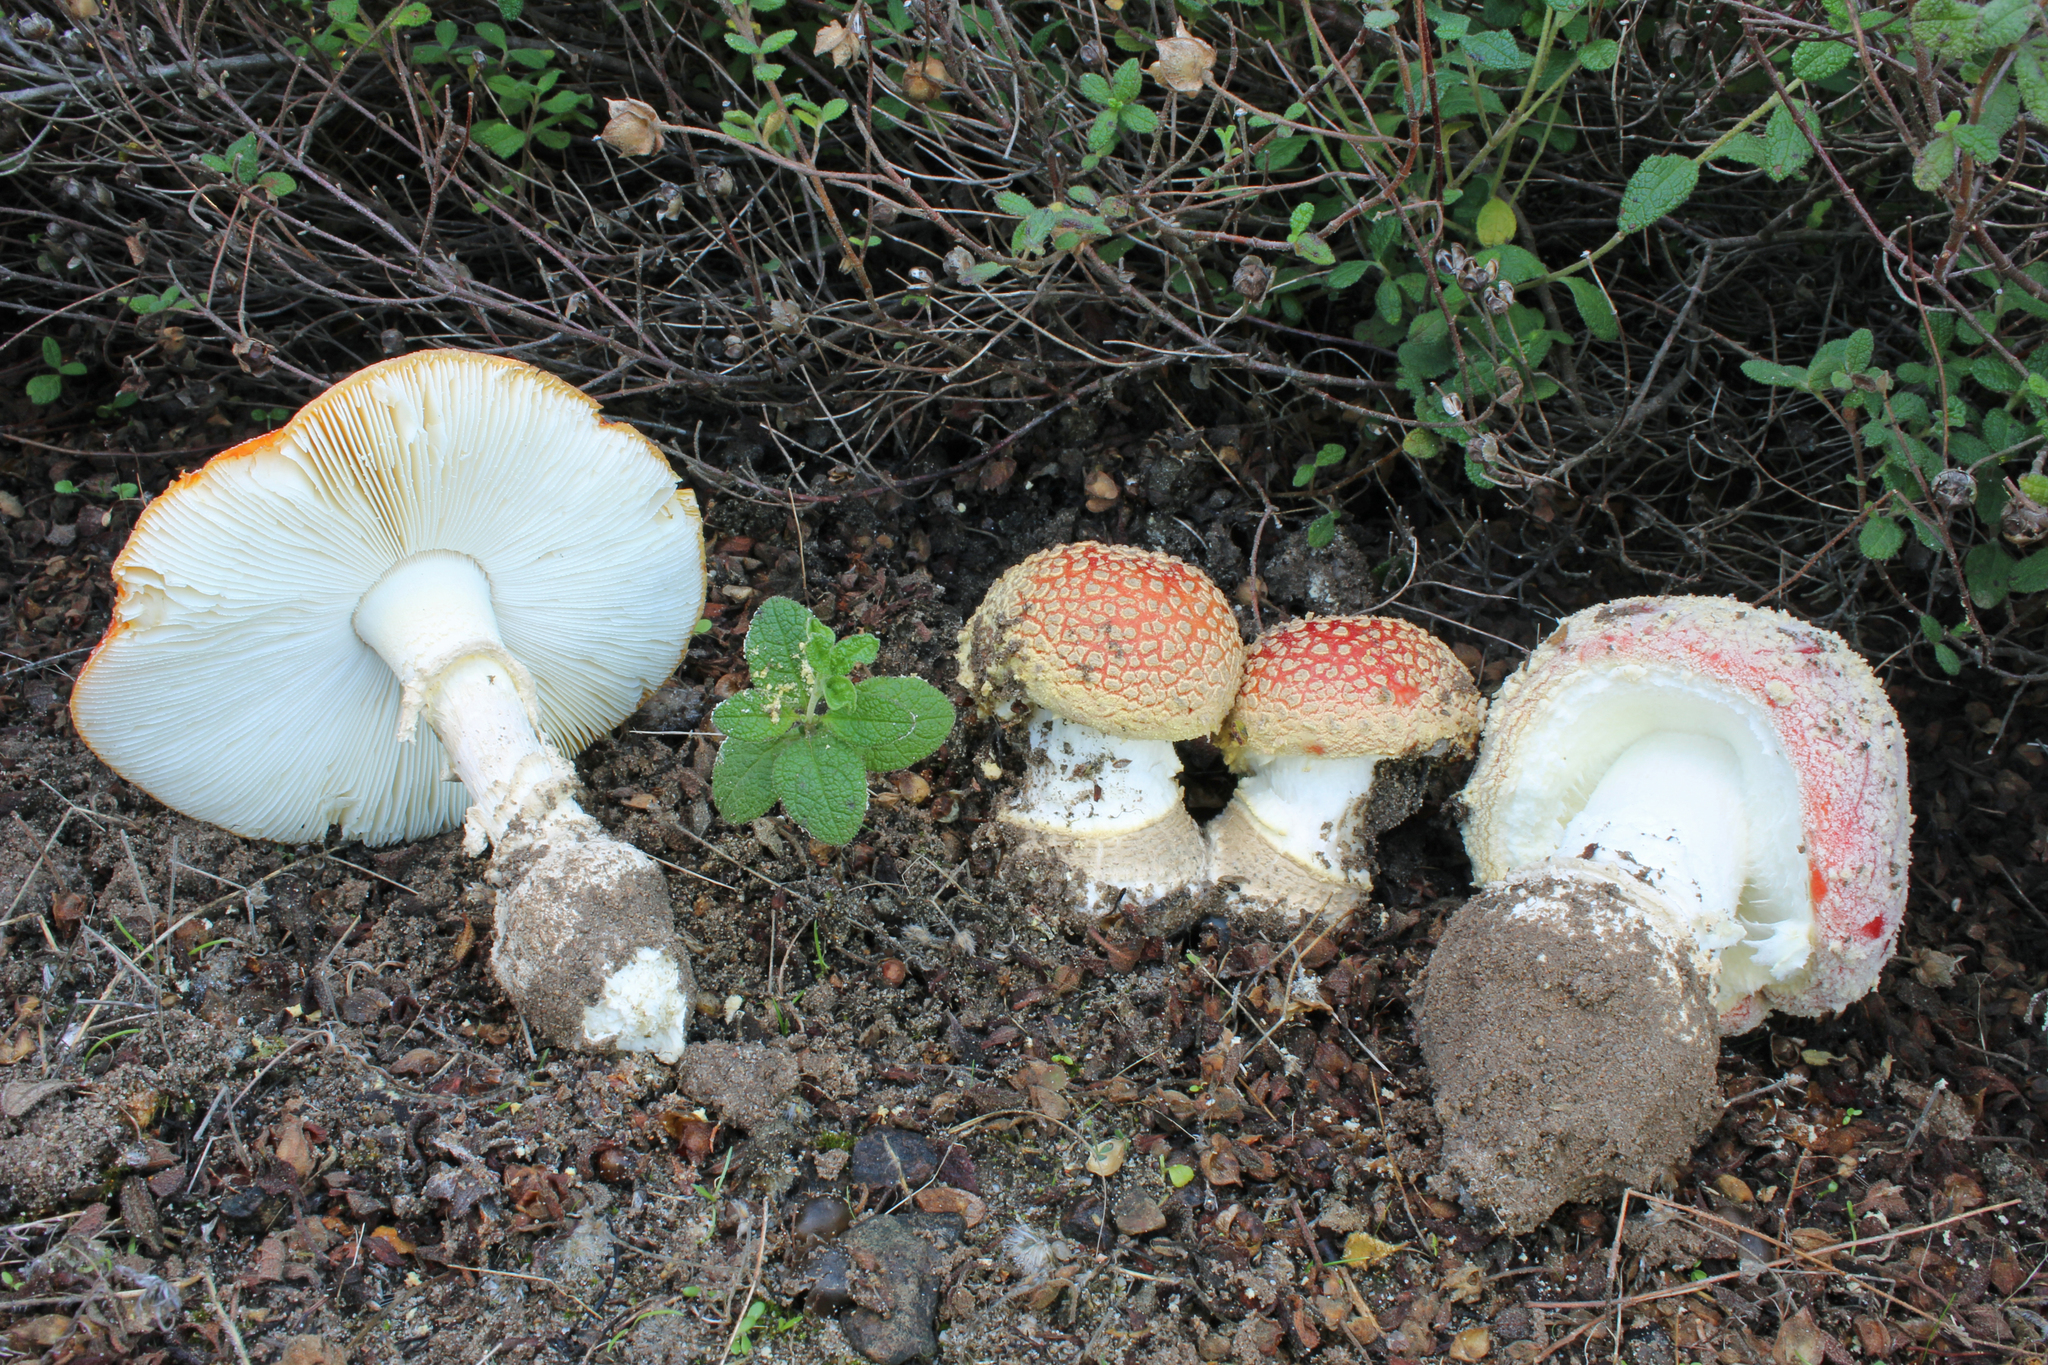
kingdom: Fungi
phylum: Basidiomycota
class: Agaricomycetes
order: Agaricales
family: Amanitaceae
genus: Amanita
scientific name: Amanita inzengae
